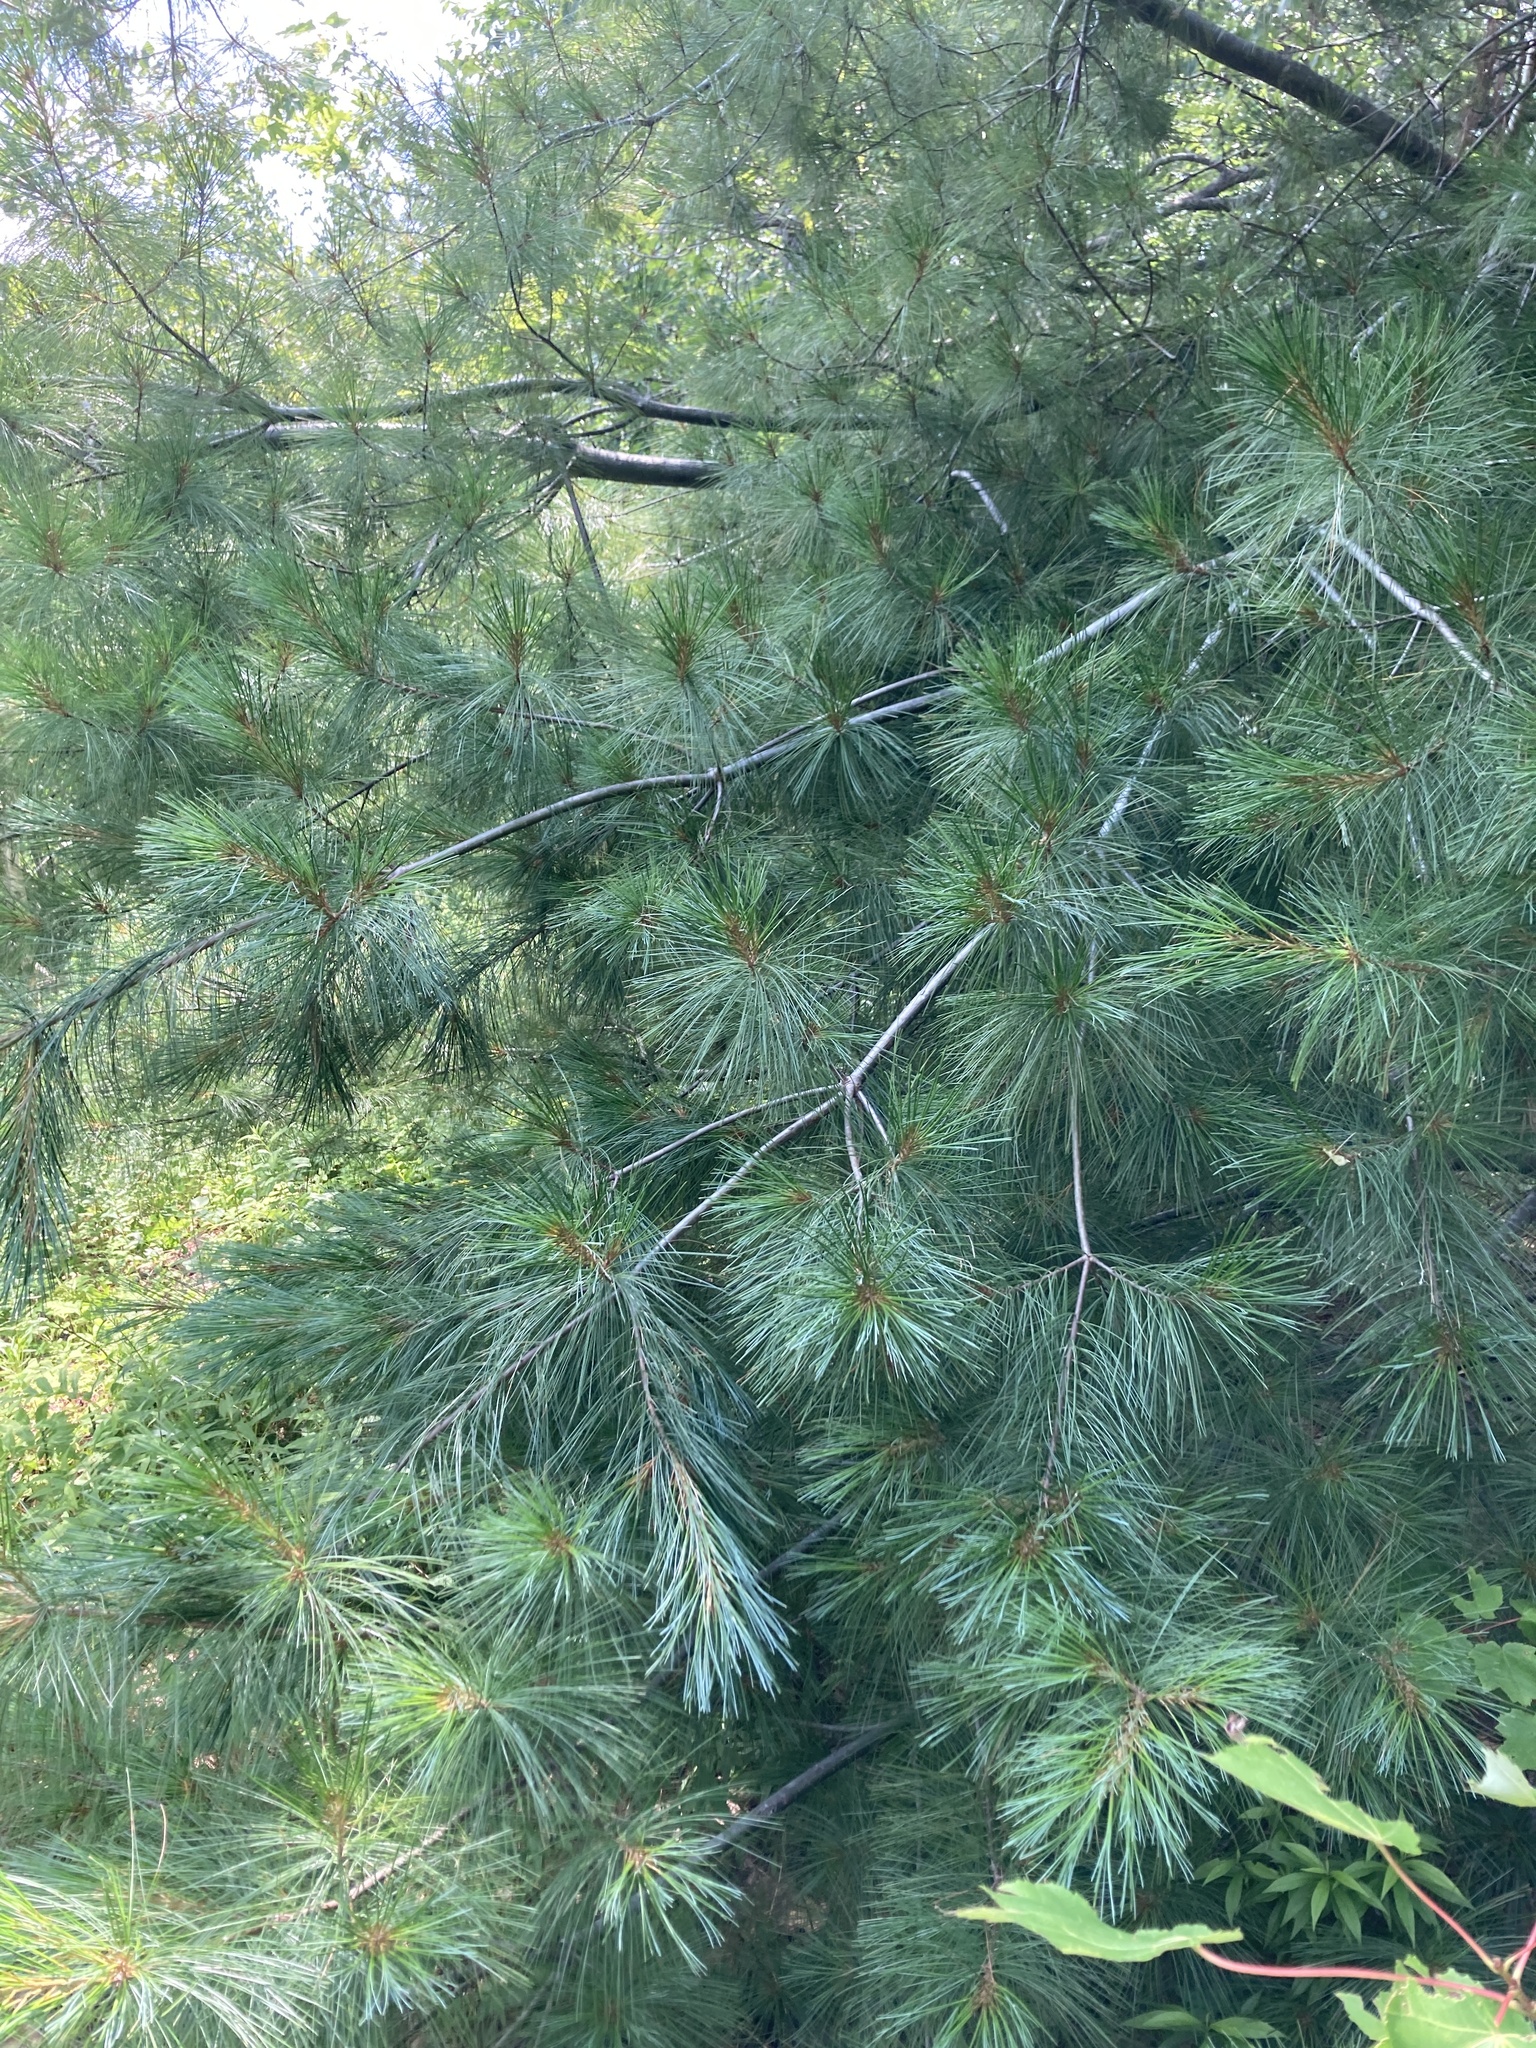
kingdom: Plantae
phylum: Tracheophyta
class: Pinopsida
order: Pinales
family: Pinaceae
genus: Pinus
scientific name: Pinus strobus
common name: Weymouth pine
